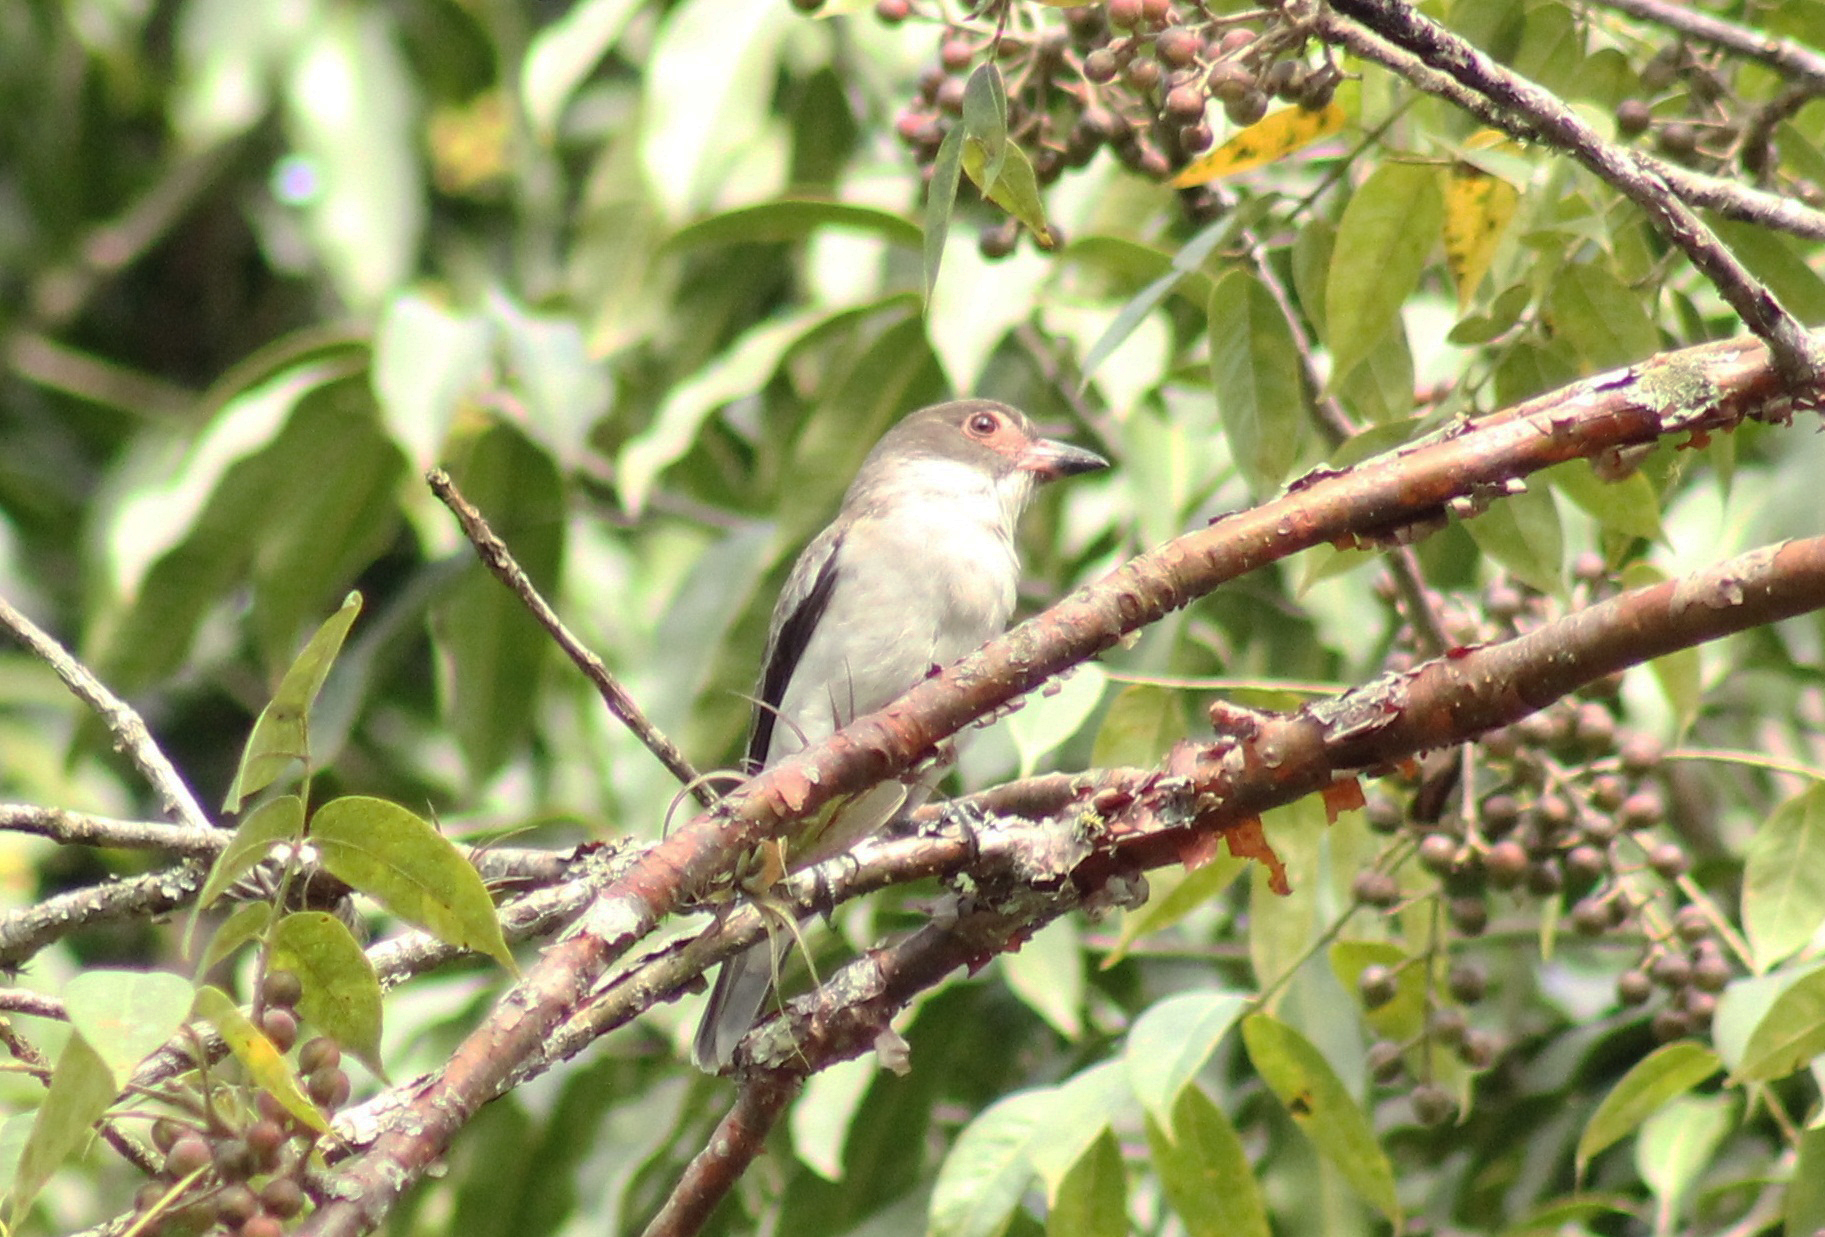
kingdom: Animalia
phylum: Chordata
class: Aves
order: Passeriformes
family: Cotingidae
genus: Tityra
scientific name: Tityra semifasciata
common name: Masked tityra
